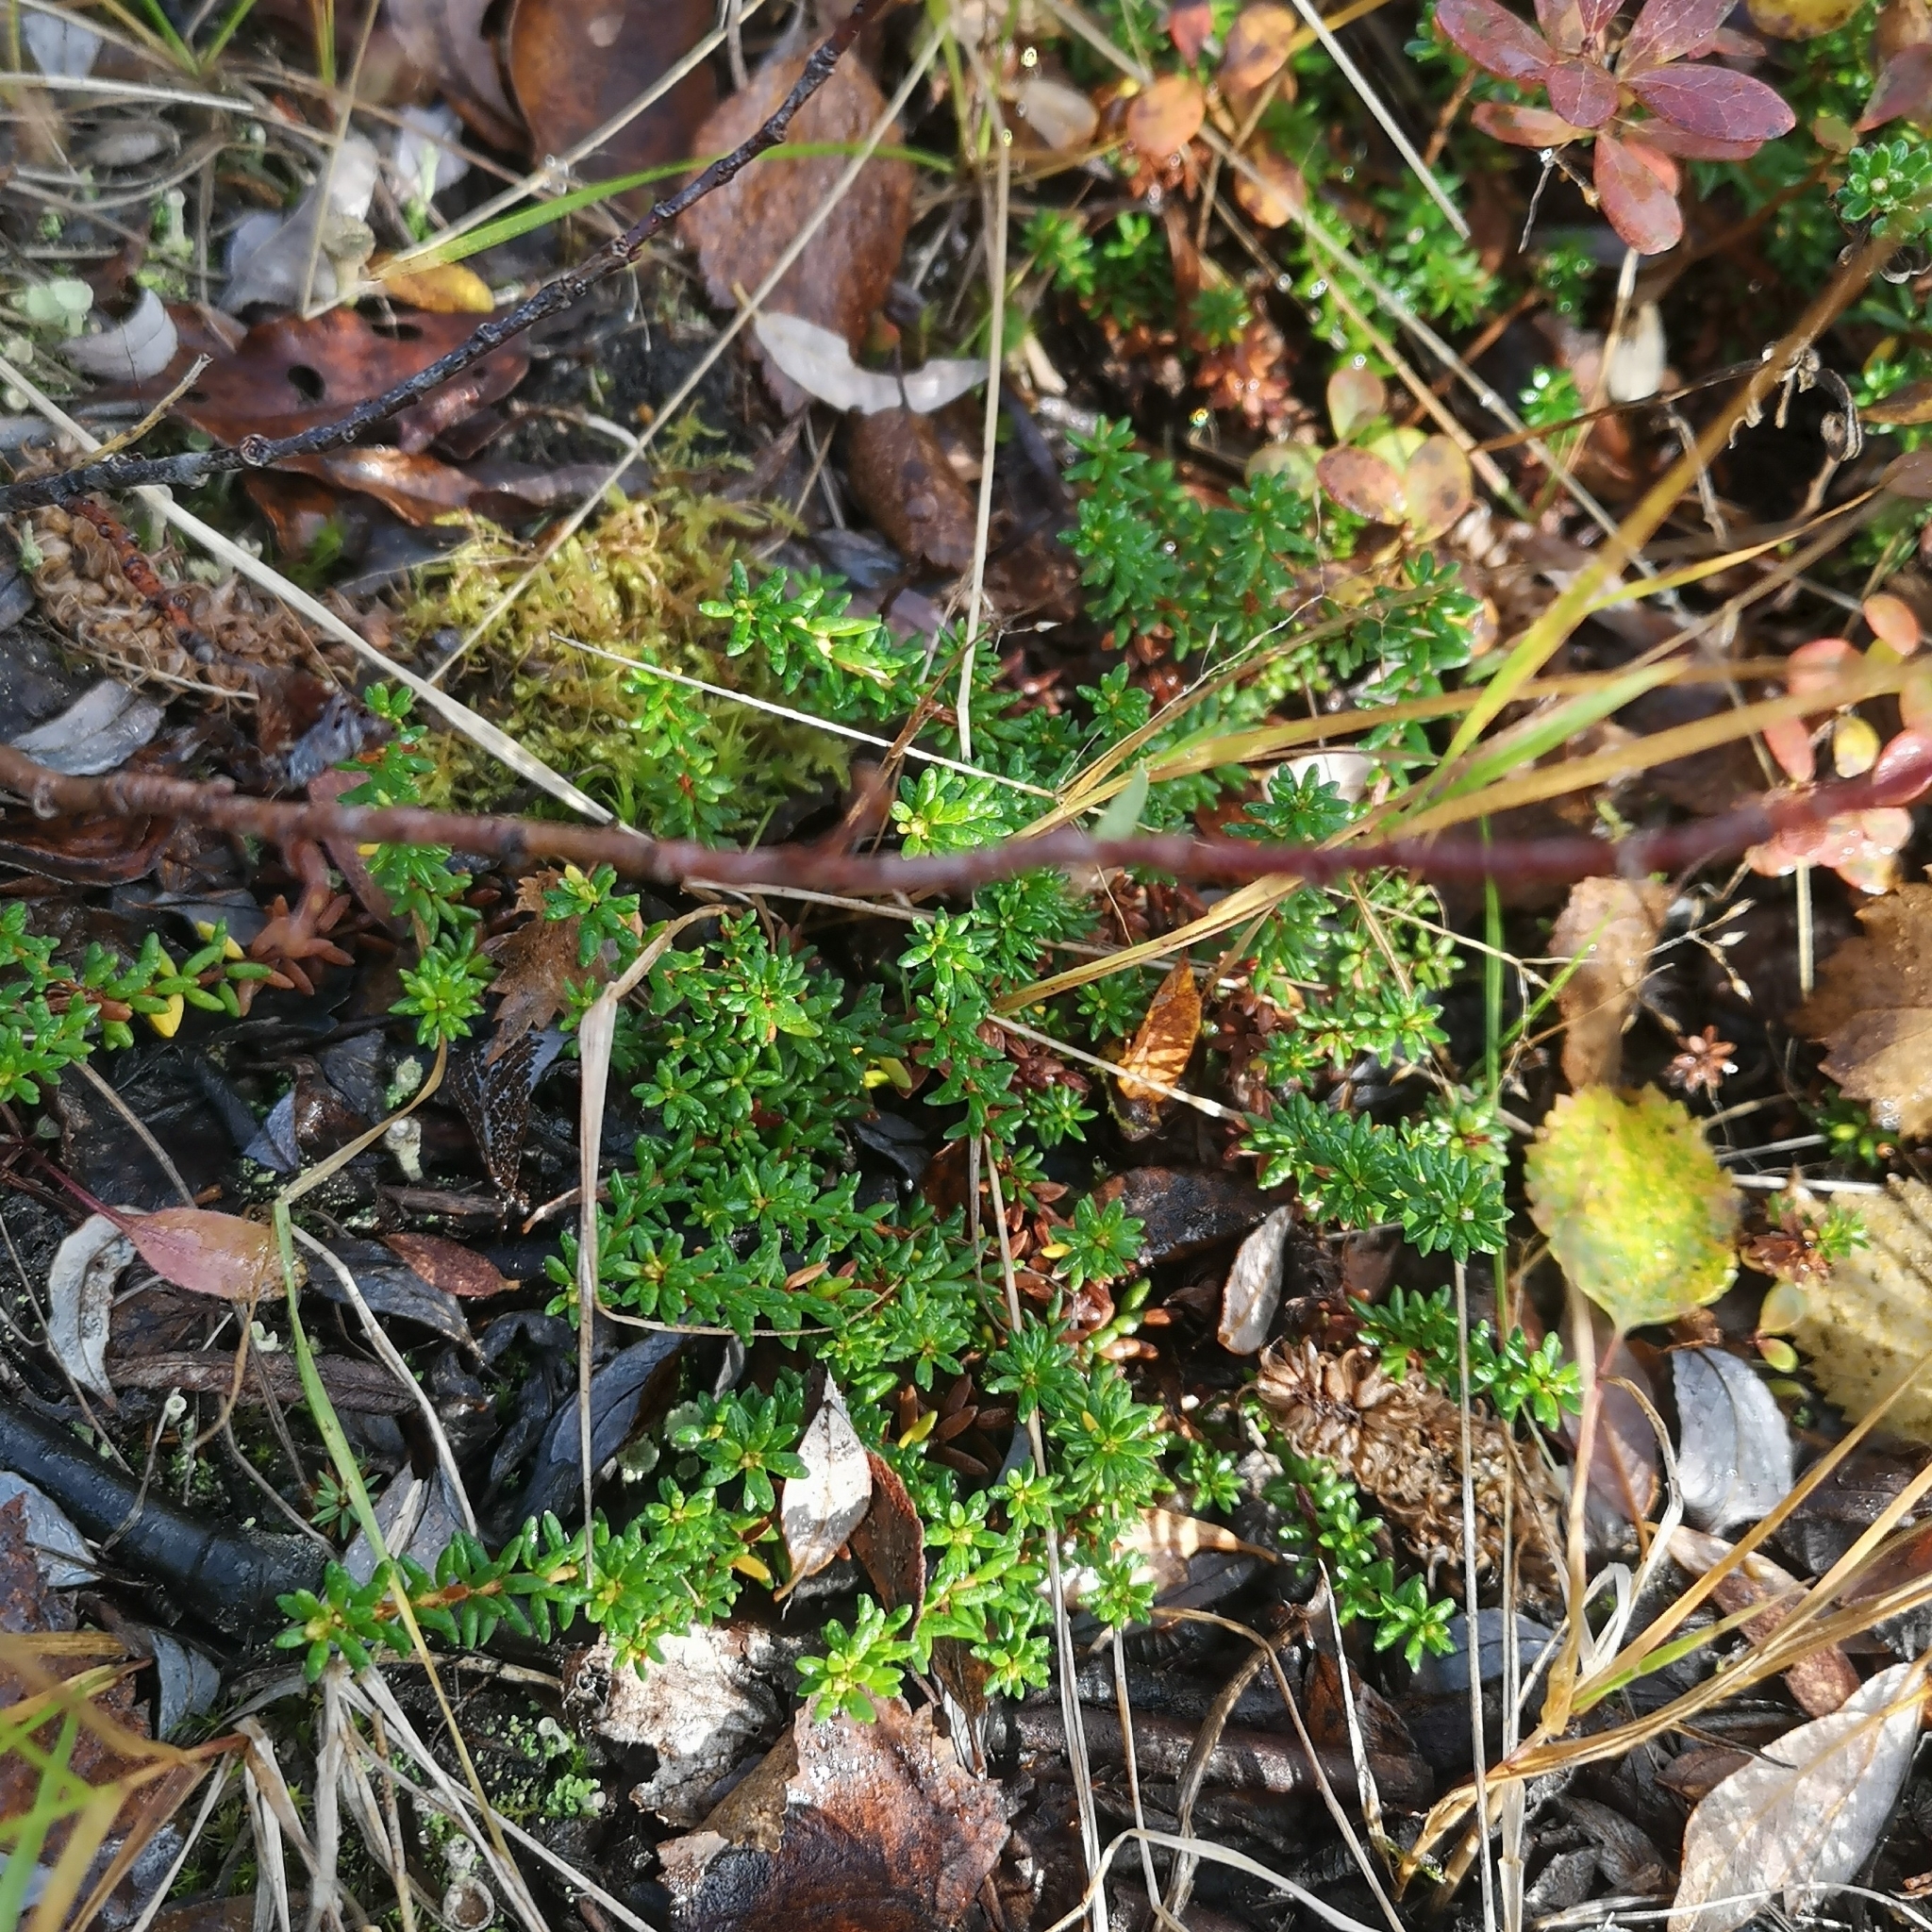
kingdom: Plantae
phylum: Tracheophyta
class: Magnoliopsida
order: Ericales
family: Ericaceae
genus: Empetrum
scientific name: Empetrum nigrum
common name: Black crowberry
